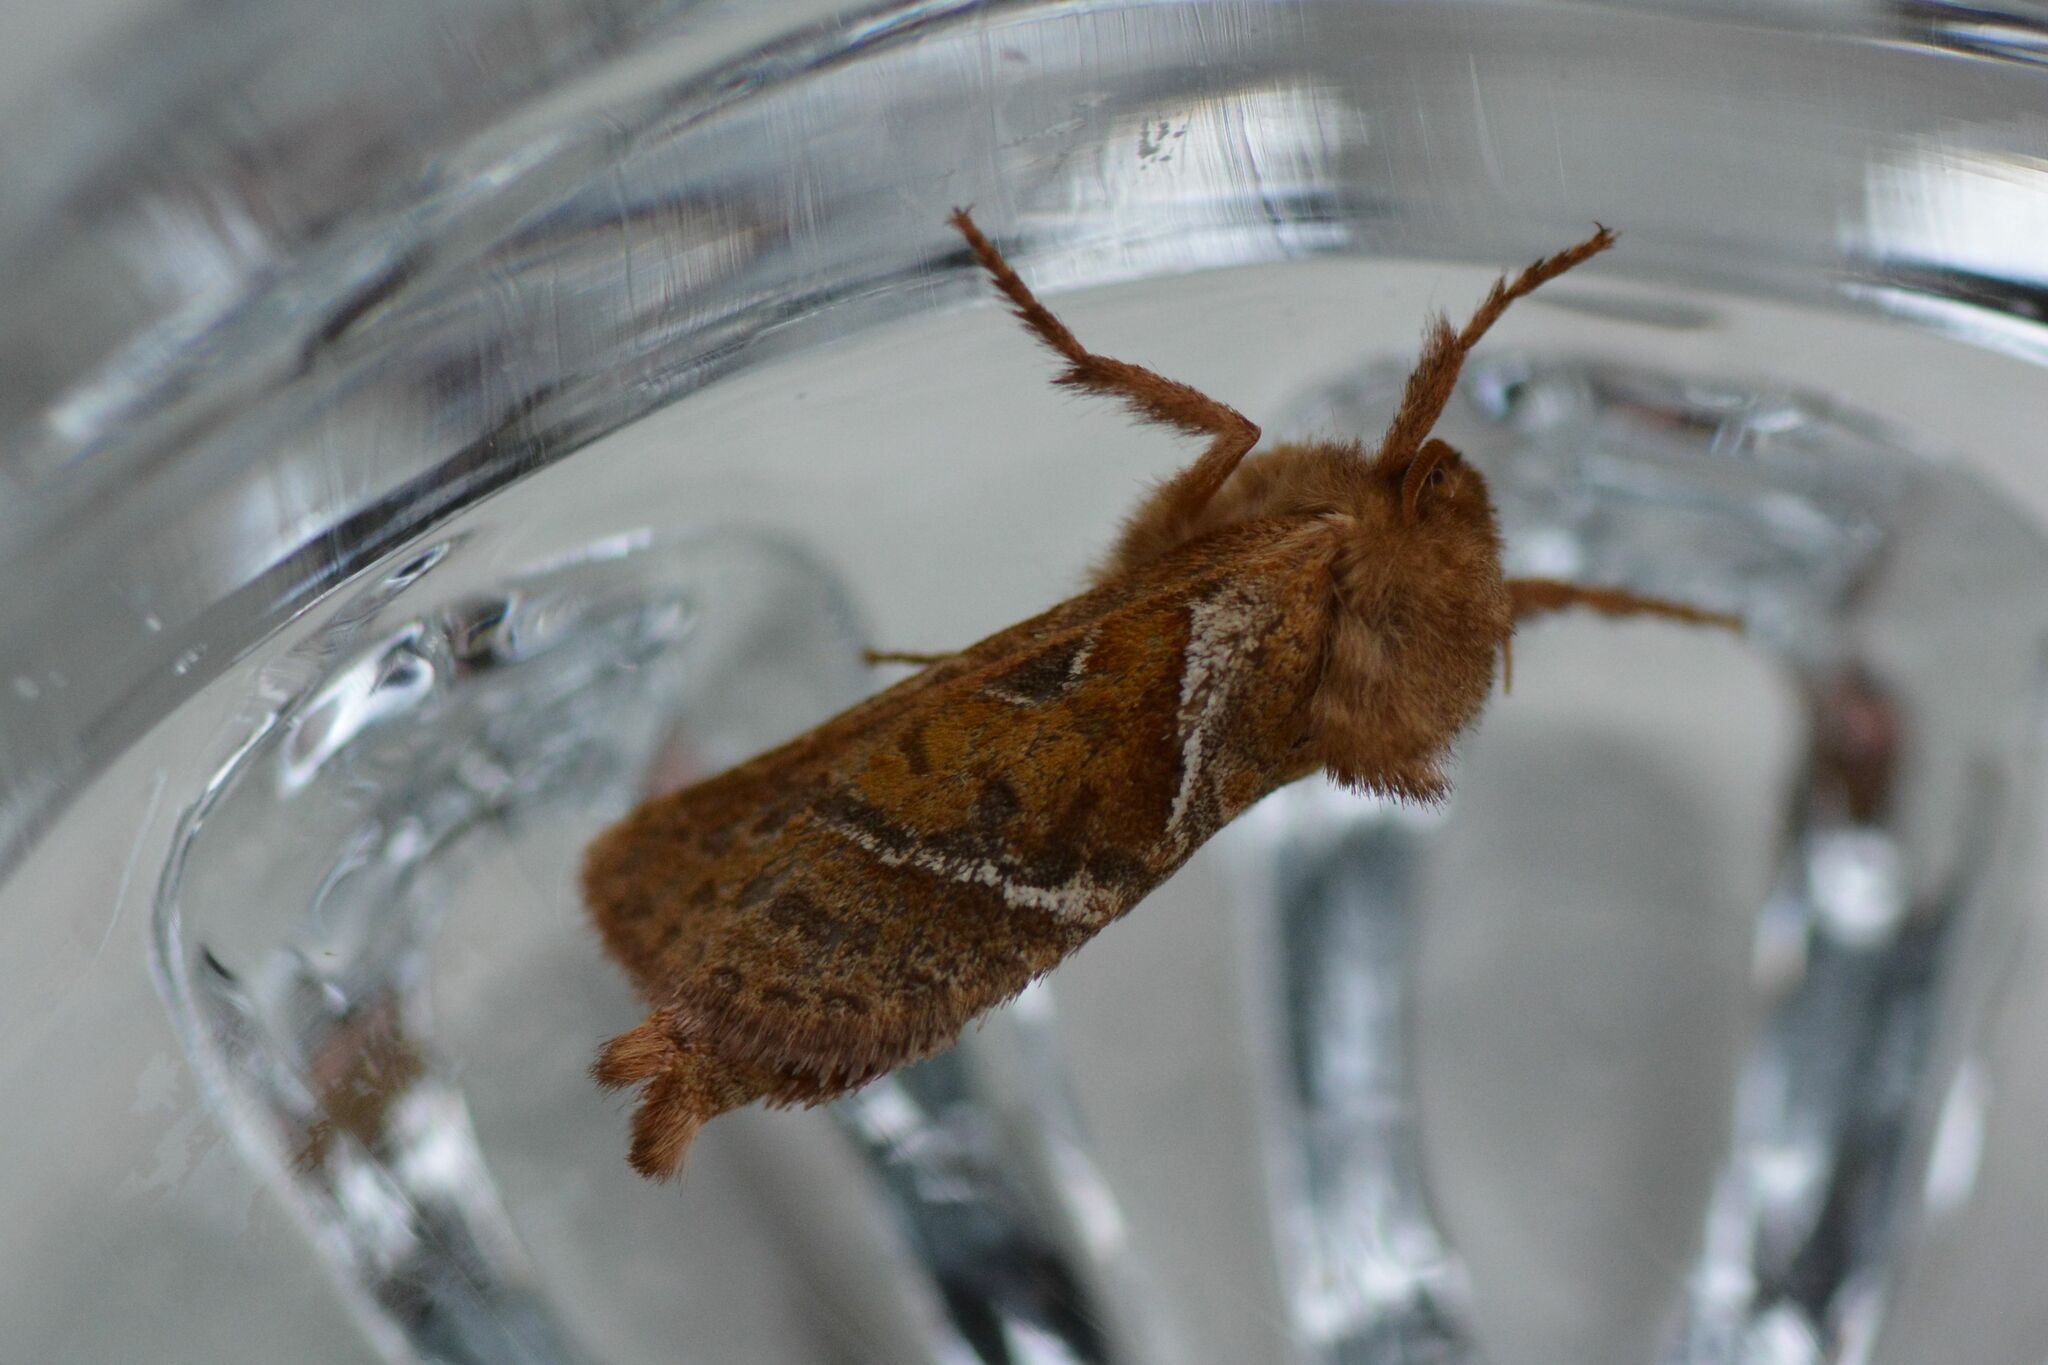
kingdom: Animalia
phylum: Arthropoda
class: Insecta
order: Lepidoptera
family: Hepialidae
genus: Triodia
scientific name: Triodia sylvina
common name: Orange swift
